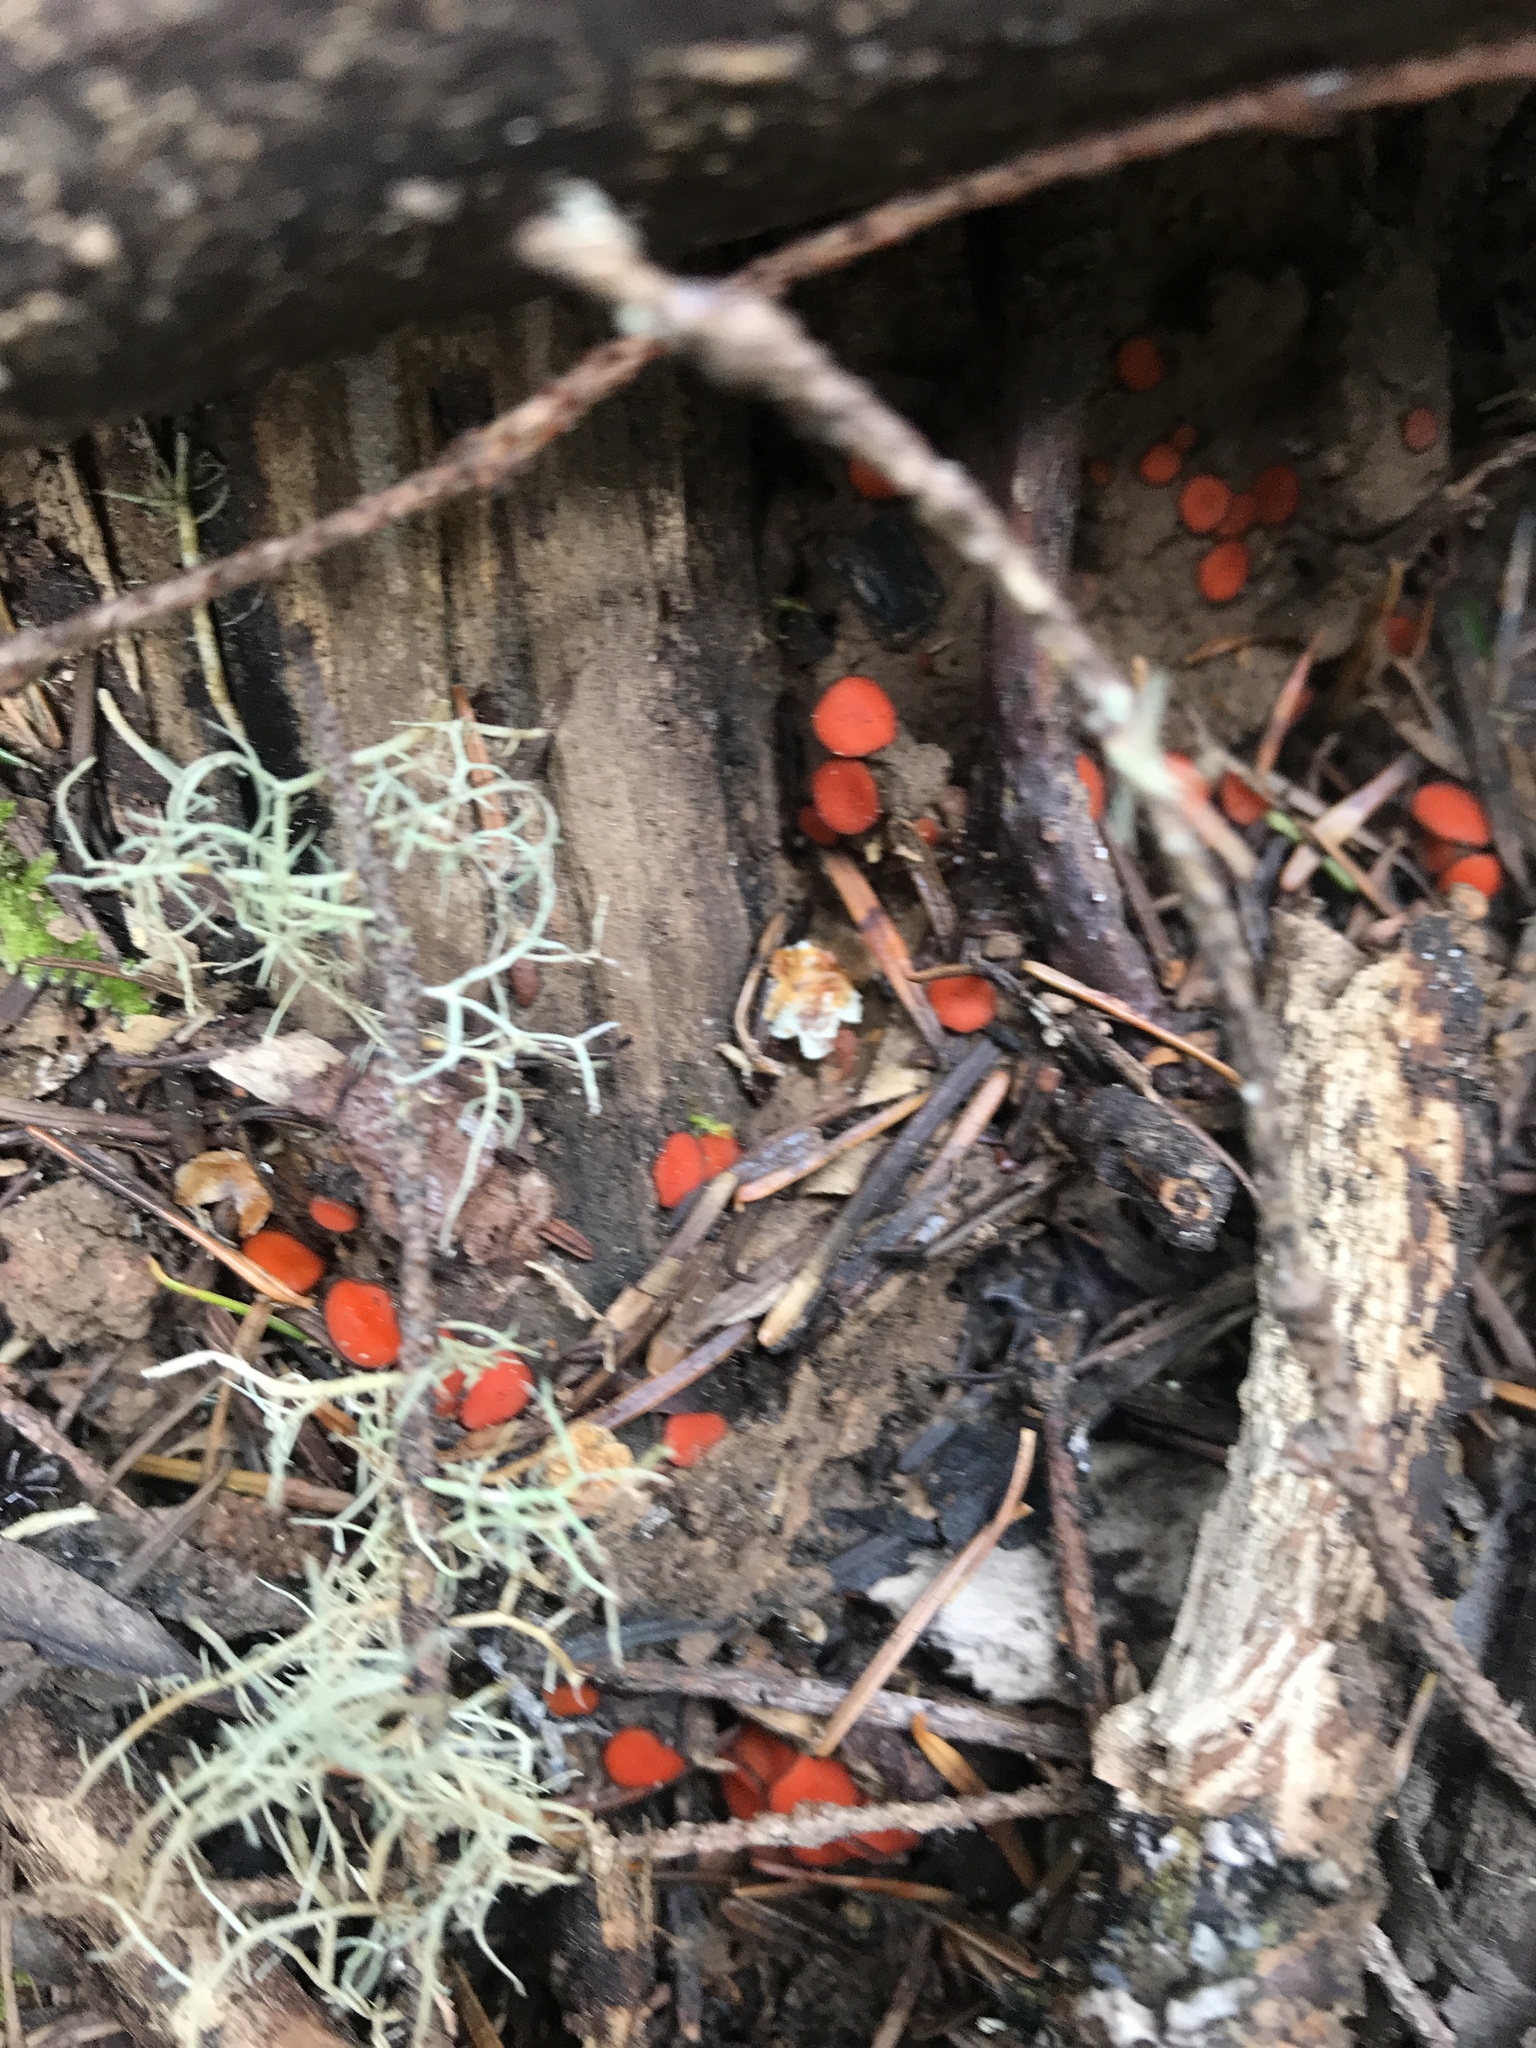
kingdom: Fungi
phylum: Ascomycota
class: Pezizomycetes
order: Pezizales
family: Pyronemataceae
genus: Scutellinia
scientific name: Scutellinia
